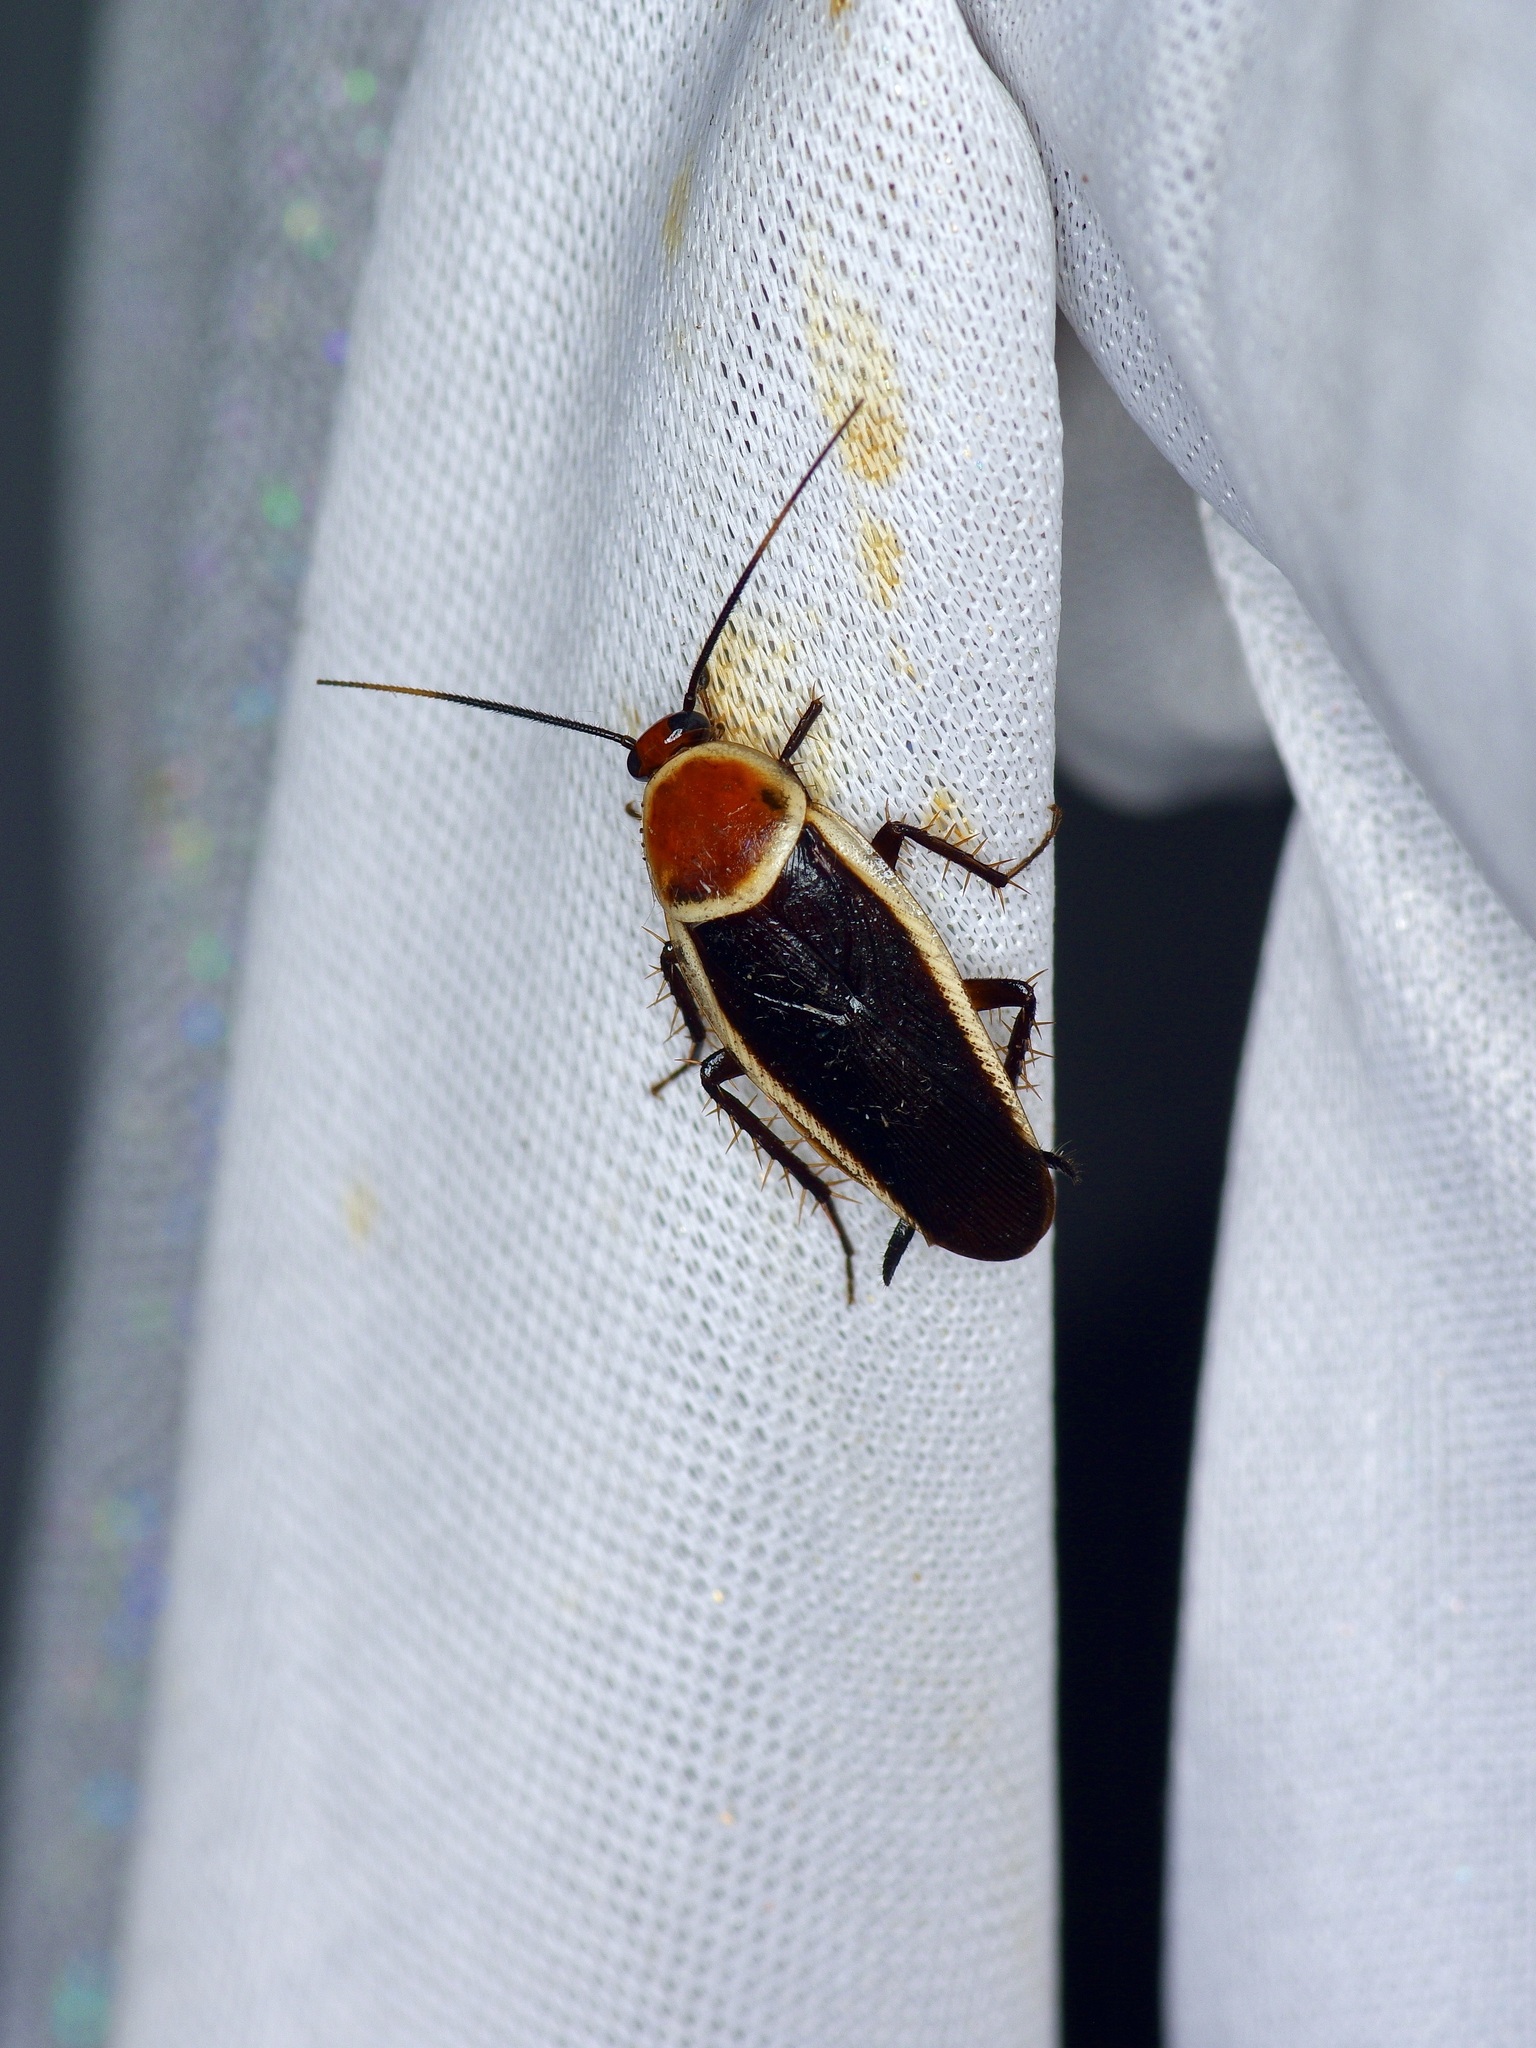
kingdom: Animalia
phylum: Arthropoda
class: Insecta
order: Blattodea
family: Ectobiidae
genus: Pseudomops
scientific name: Pseudomops septentrionalis
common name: Pale-bordered field cockroach
